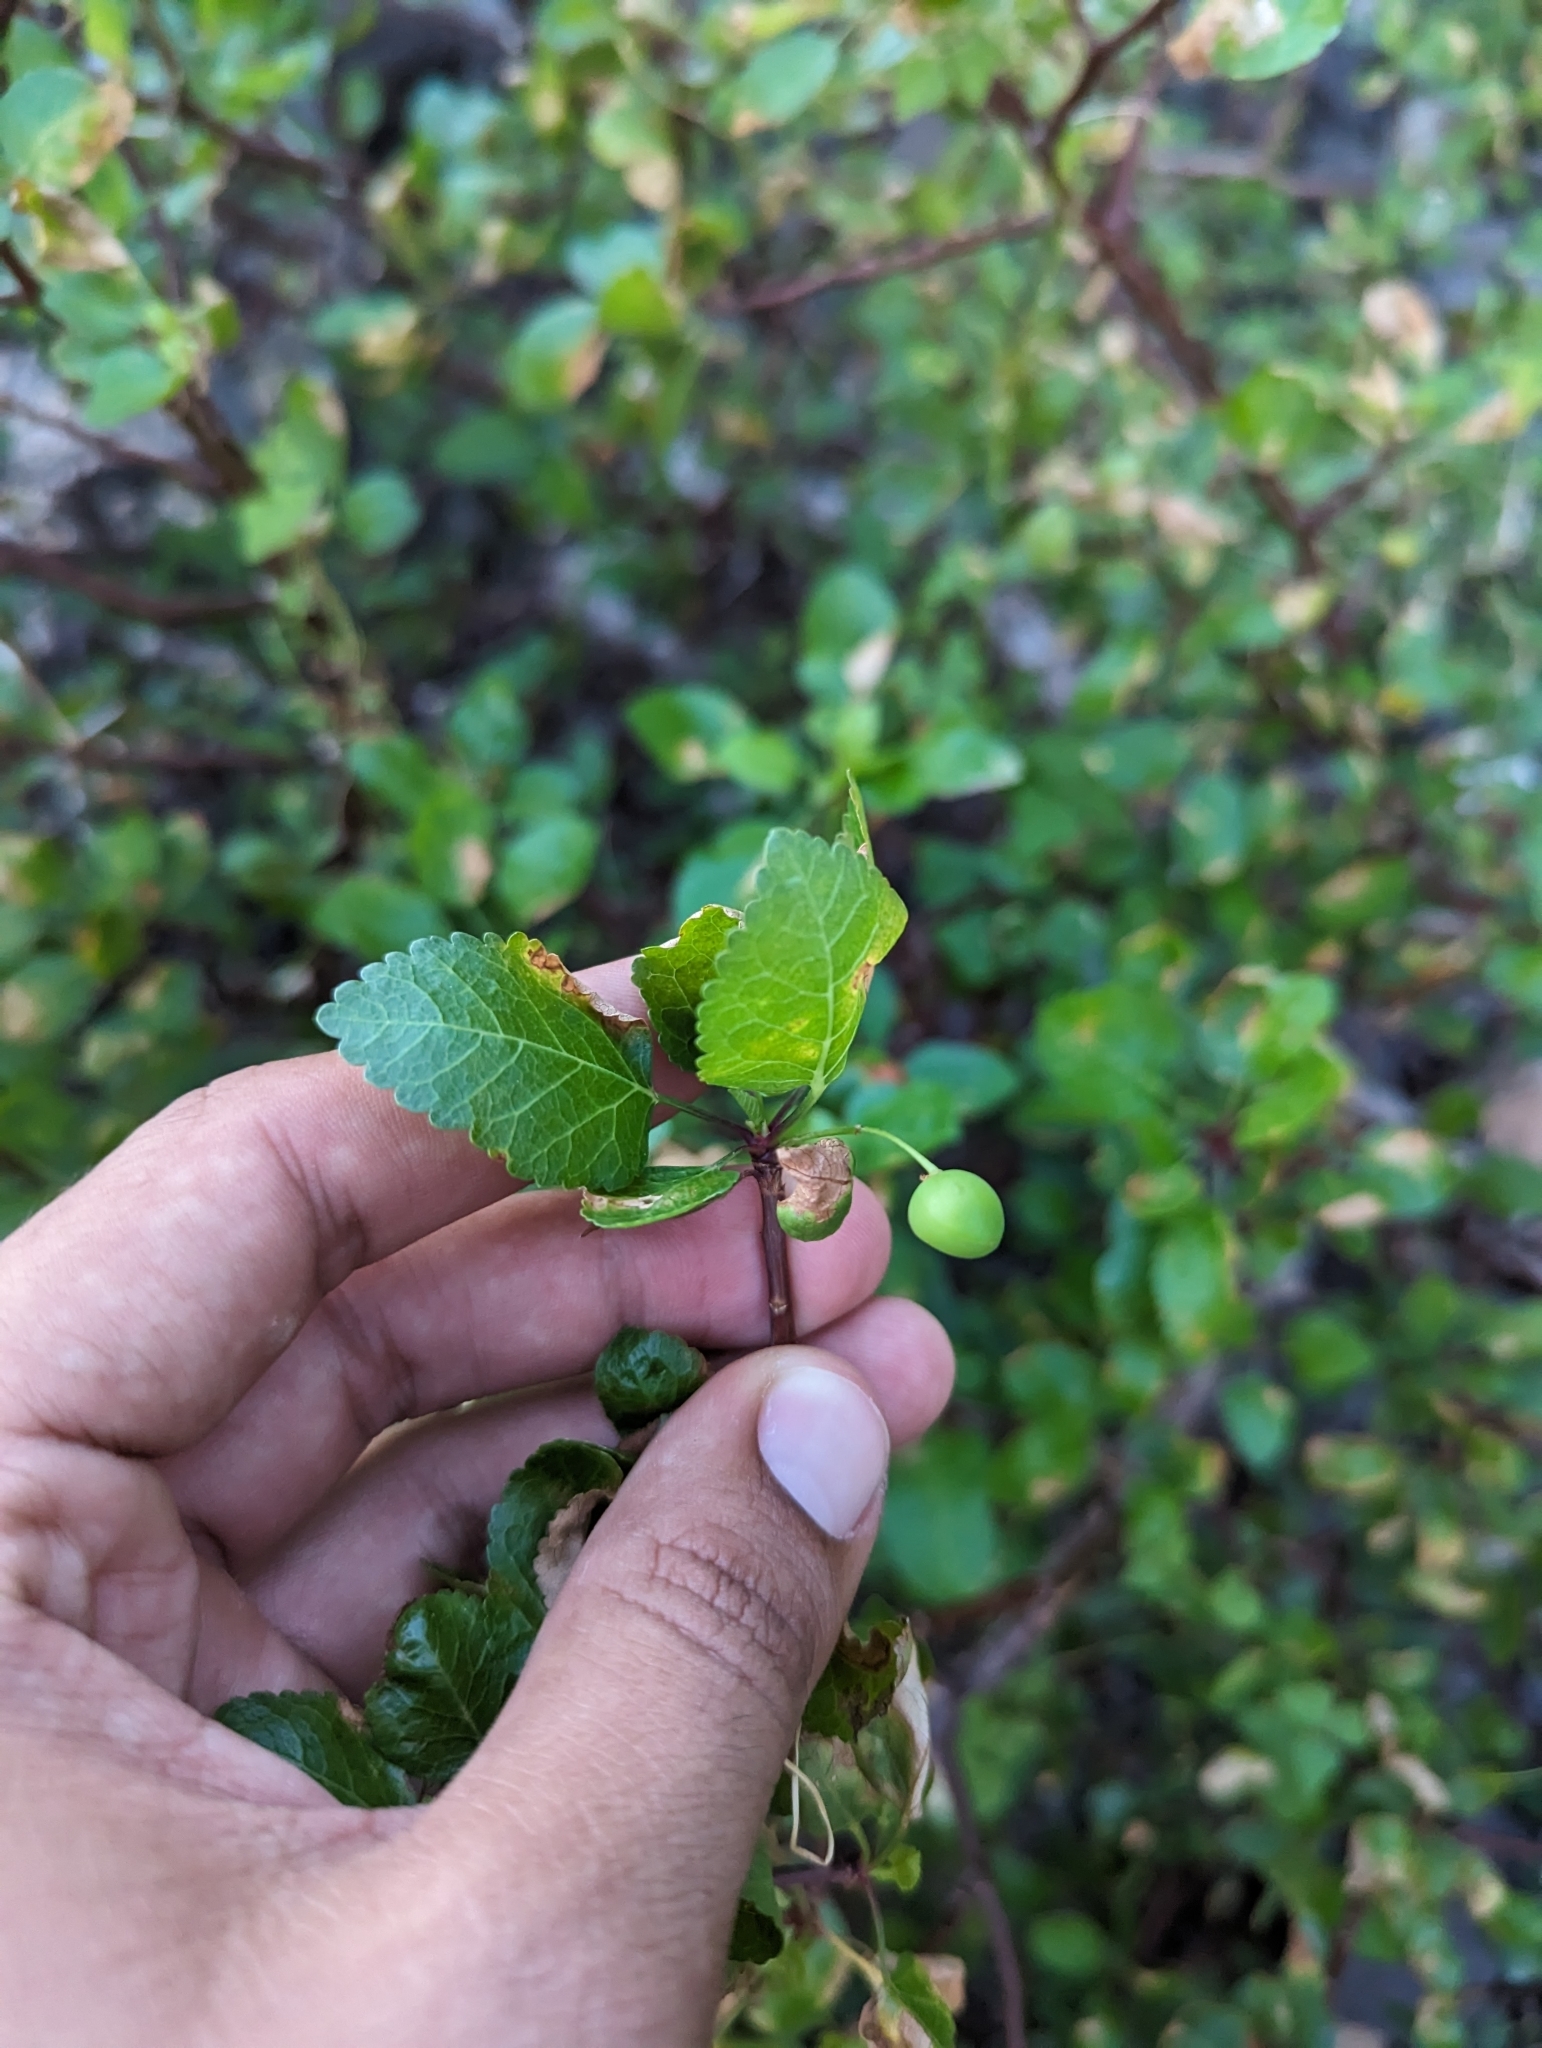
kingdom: Plantae
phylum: Tracheophyta
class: Magnoliopsida
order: Sapindales
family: Burseraceae
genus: Bursera
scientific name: Bursera epinnata
